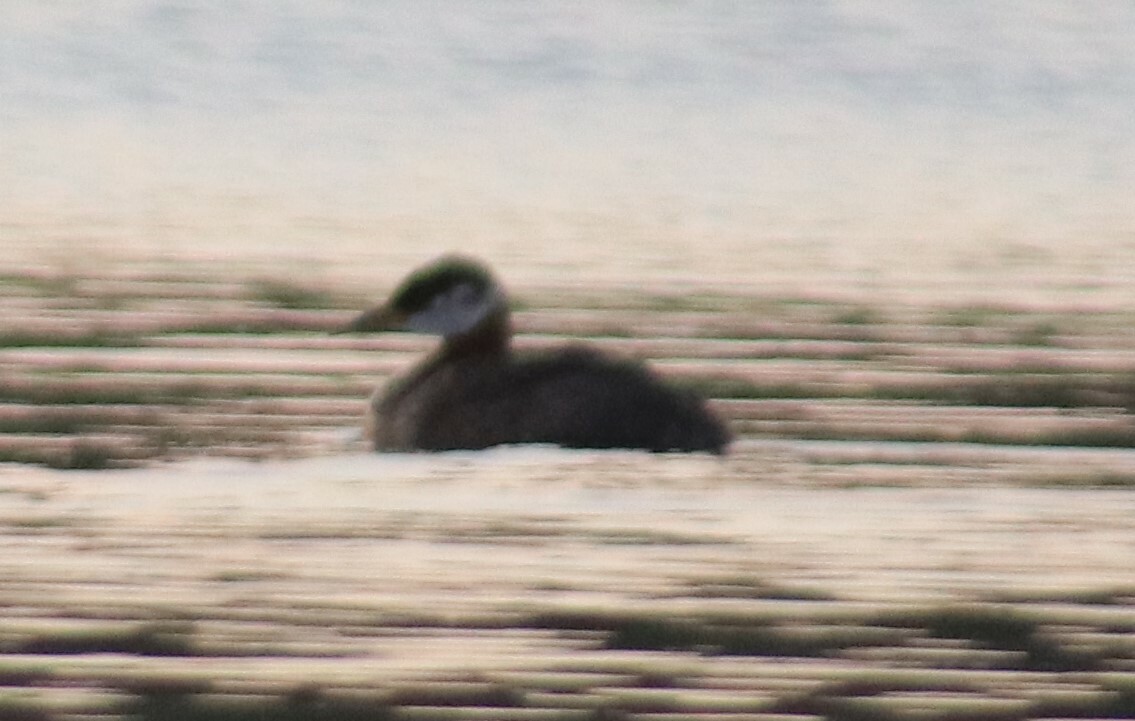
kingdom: Animalia
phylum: Chordata
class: Aves
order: Podicipediformes
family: Podicipedidae
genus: Podiceps
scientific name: Podiceps grisegena
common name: Red-necked grebe
